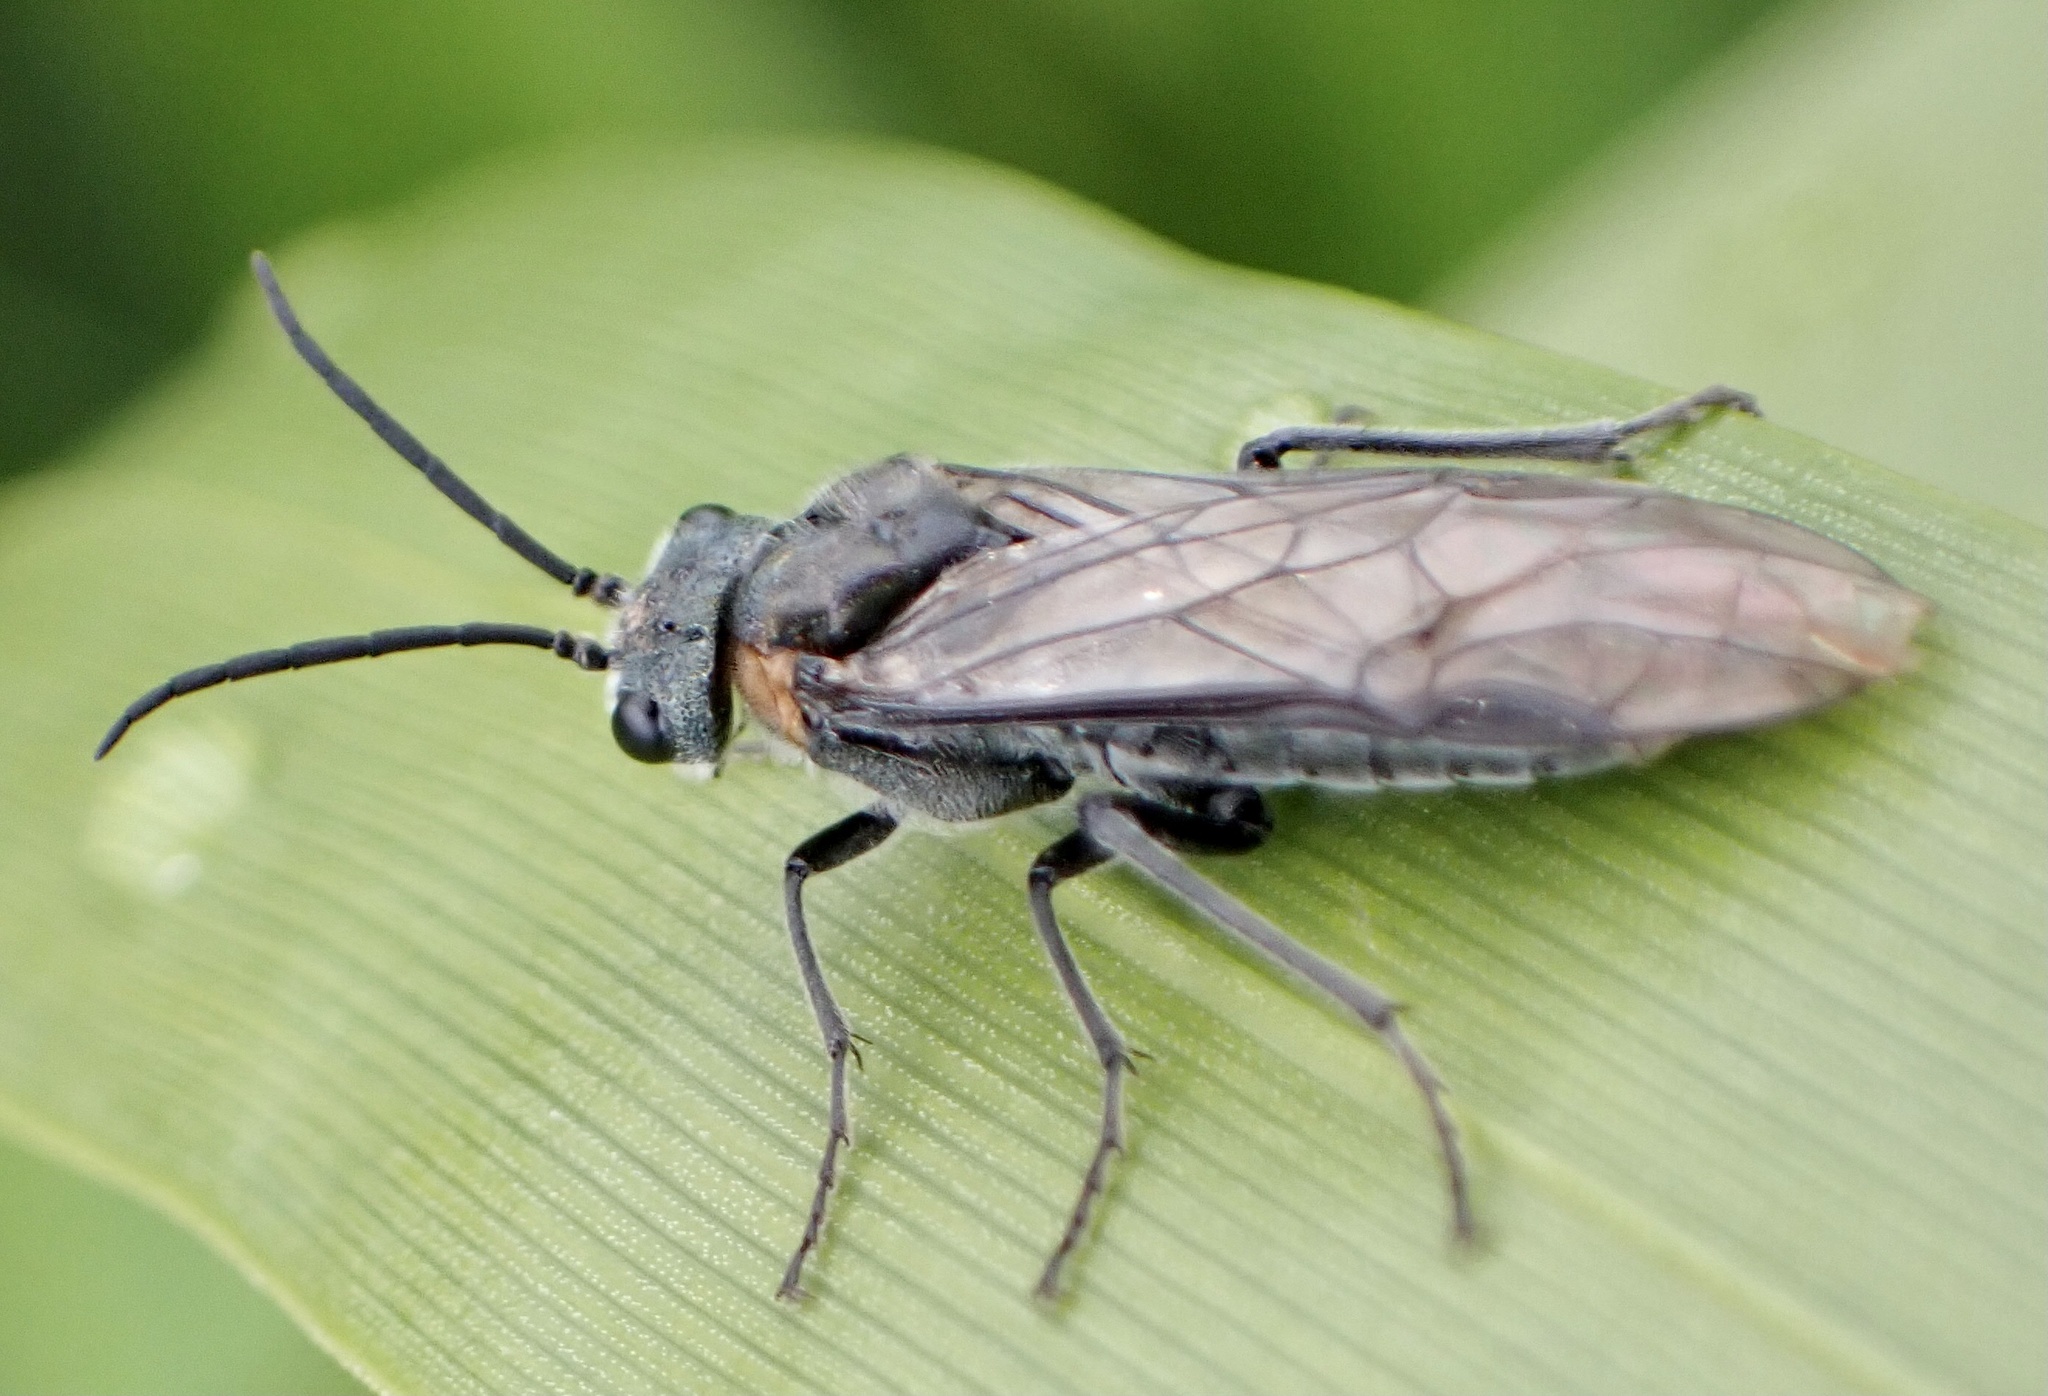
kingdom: Animalia
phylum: Arthropoda
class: Insecta
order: Hymenoptera
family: Tenthredinidae
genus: Dolerus
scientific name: Dolerus haematodes
